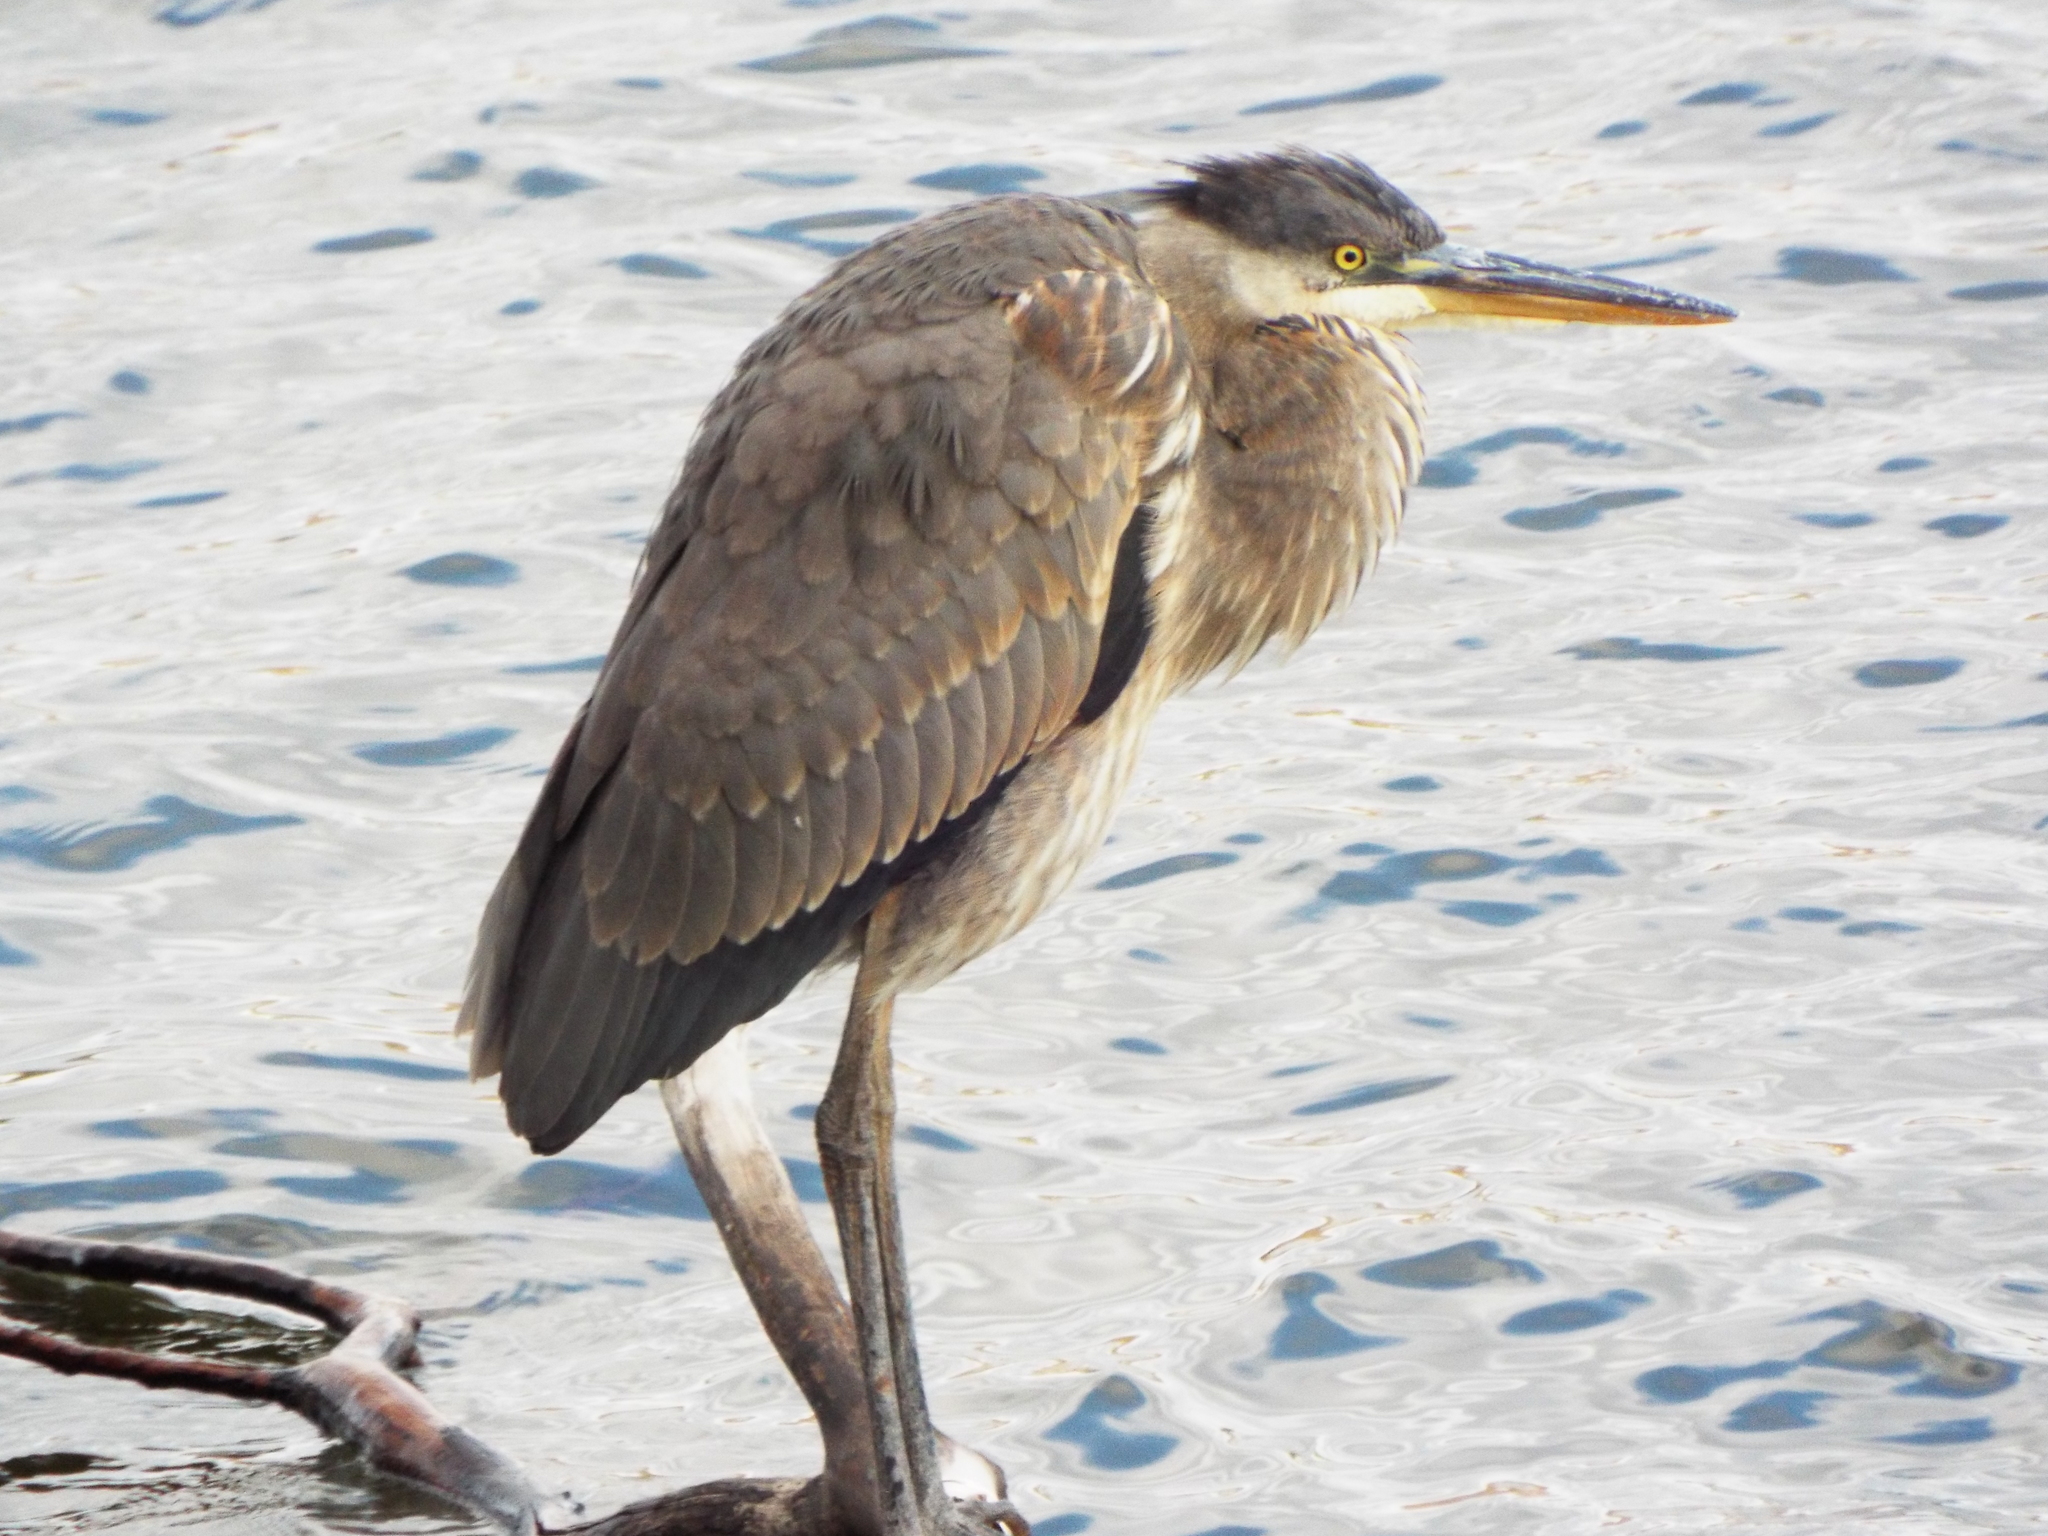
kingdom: Animalia
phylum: Chordata
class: Aves
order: Pelecaniformes
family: Ardeidae
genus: Ardea
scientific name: Ardea herodias
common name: Great blue heron
